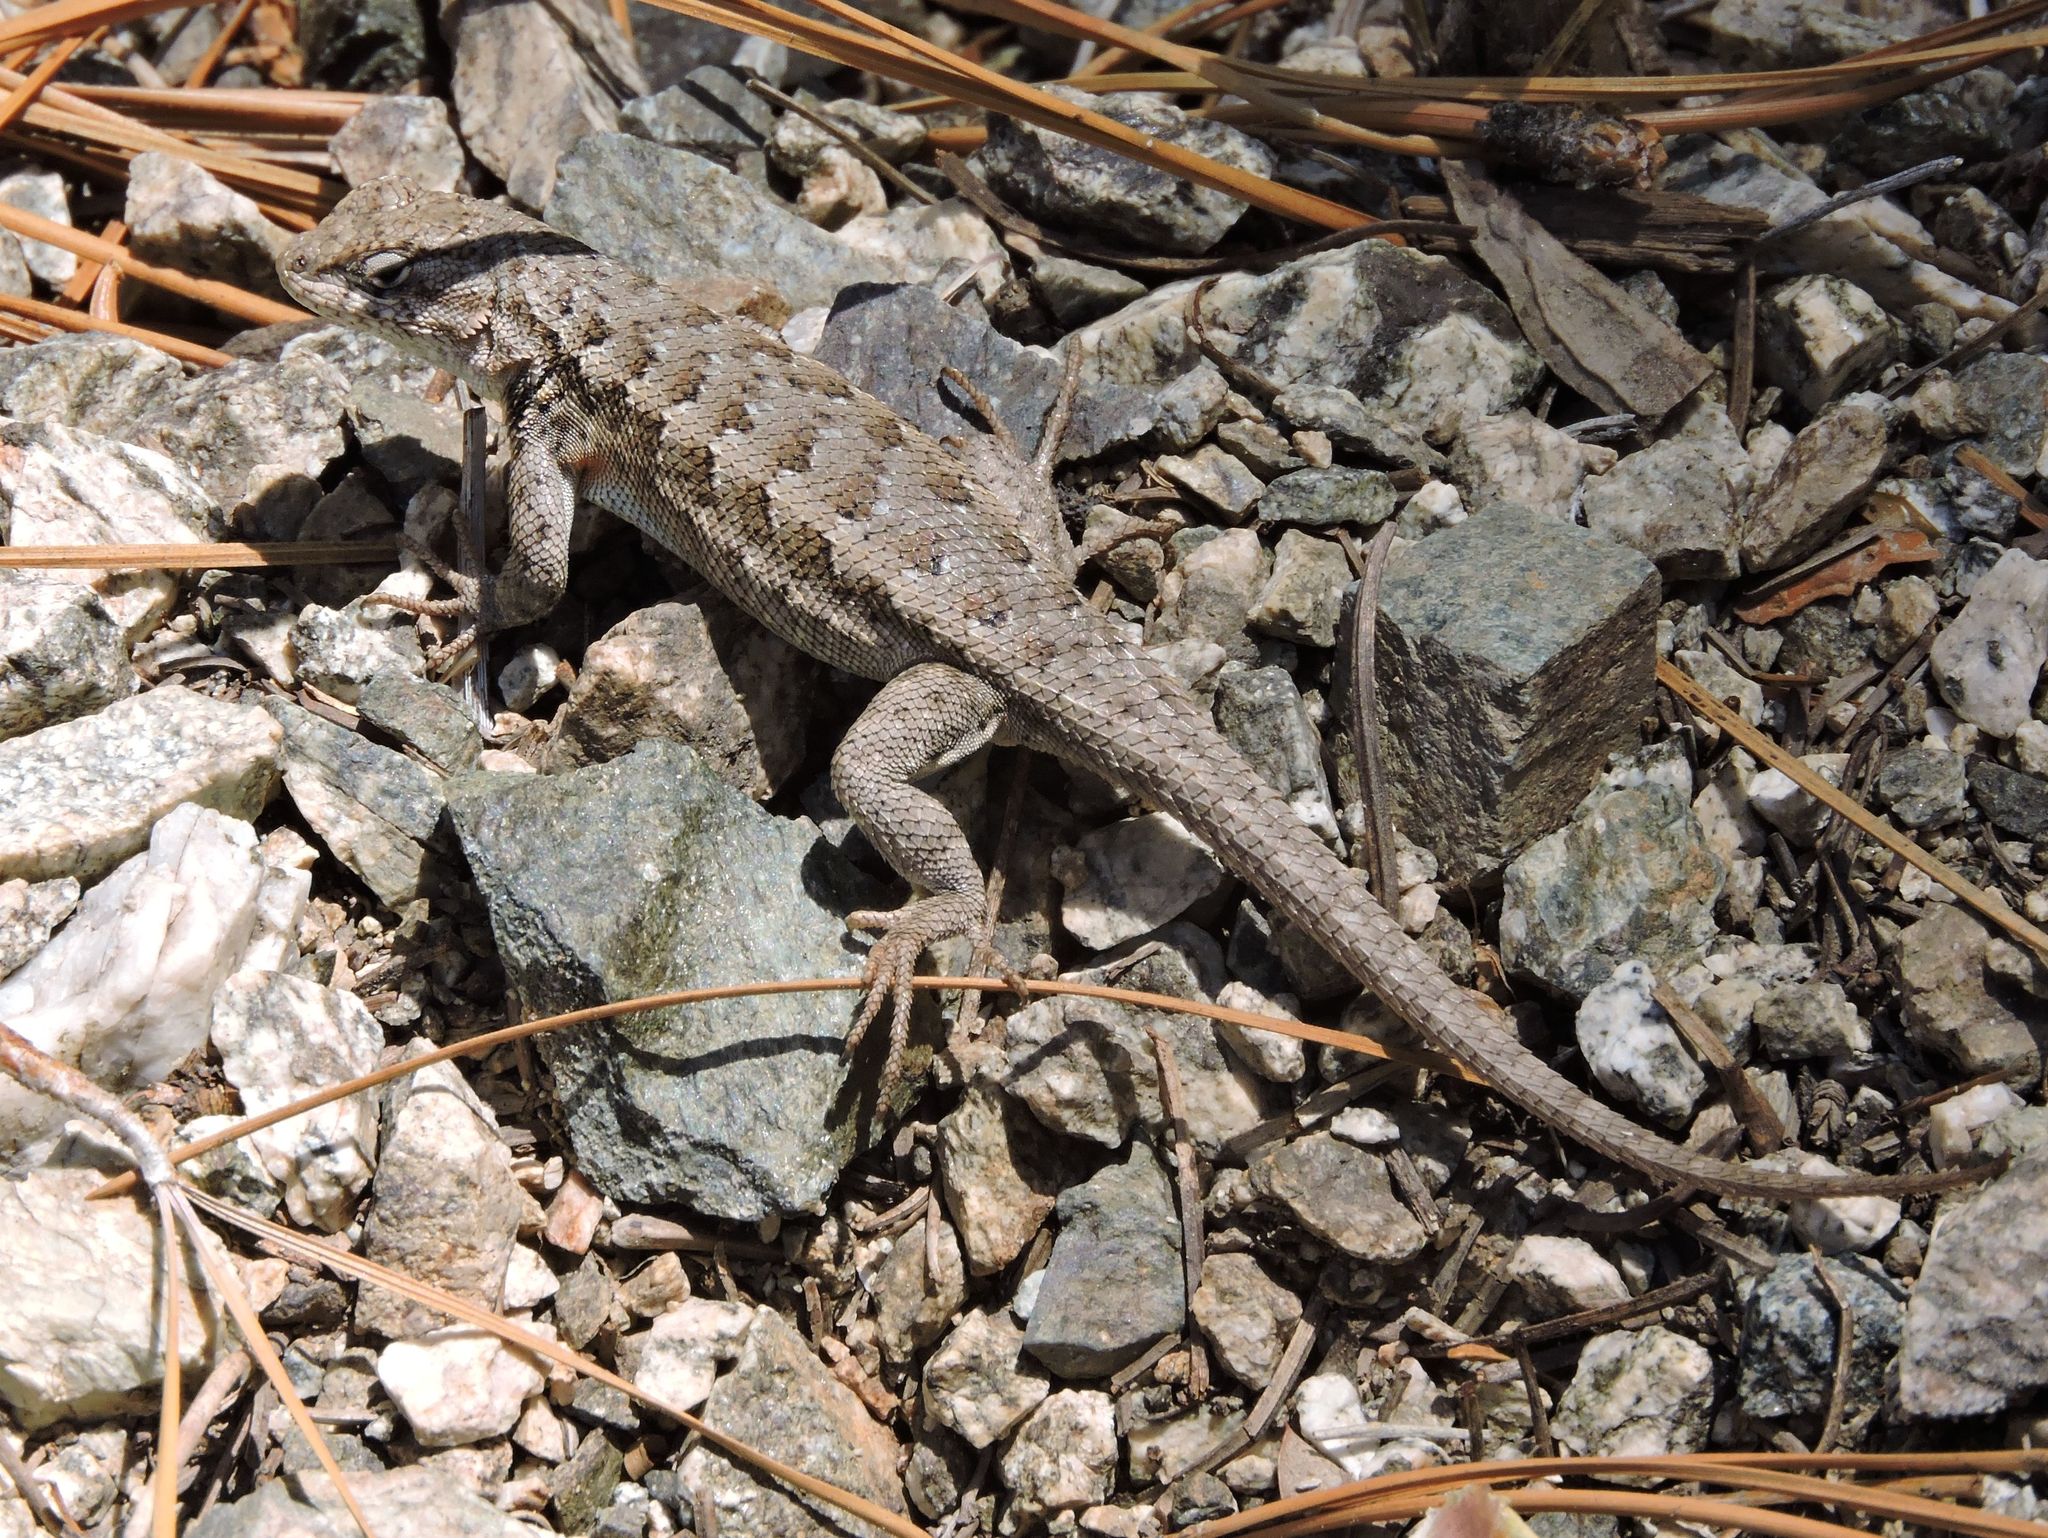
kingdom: Animalia
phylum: Chordata
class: Squamata
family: Phrynosomatidae
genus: Sceloporus
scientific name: Sceloporus occidentalis
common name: Western fence lizard
